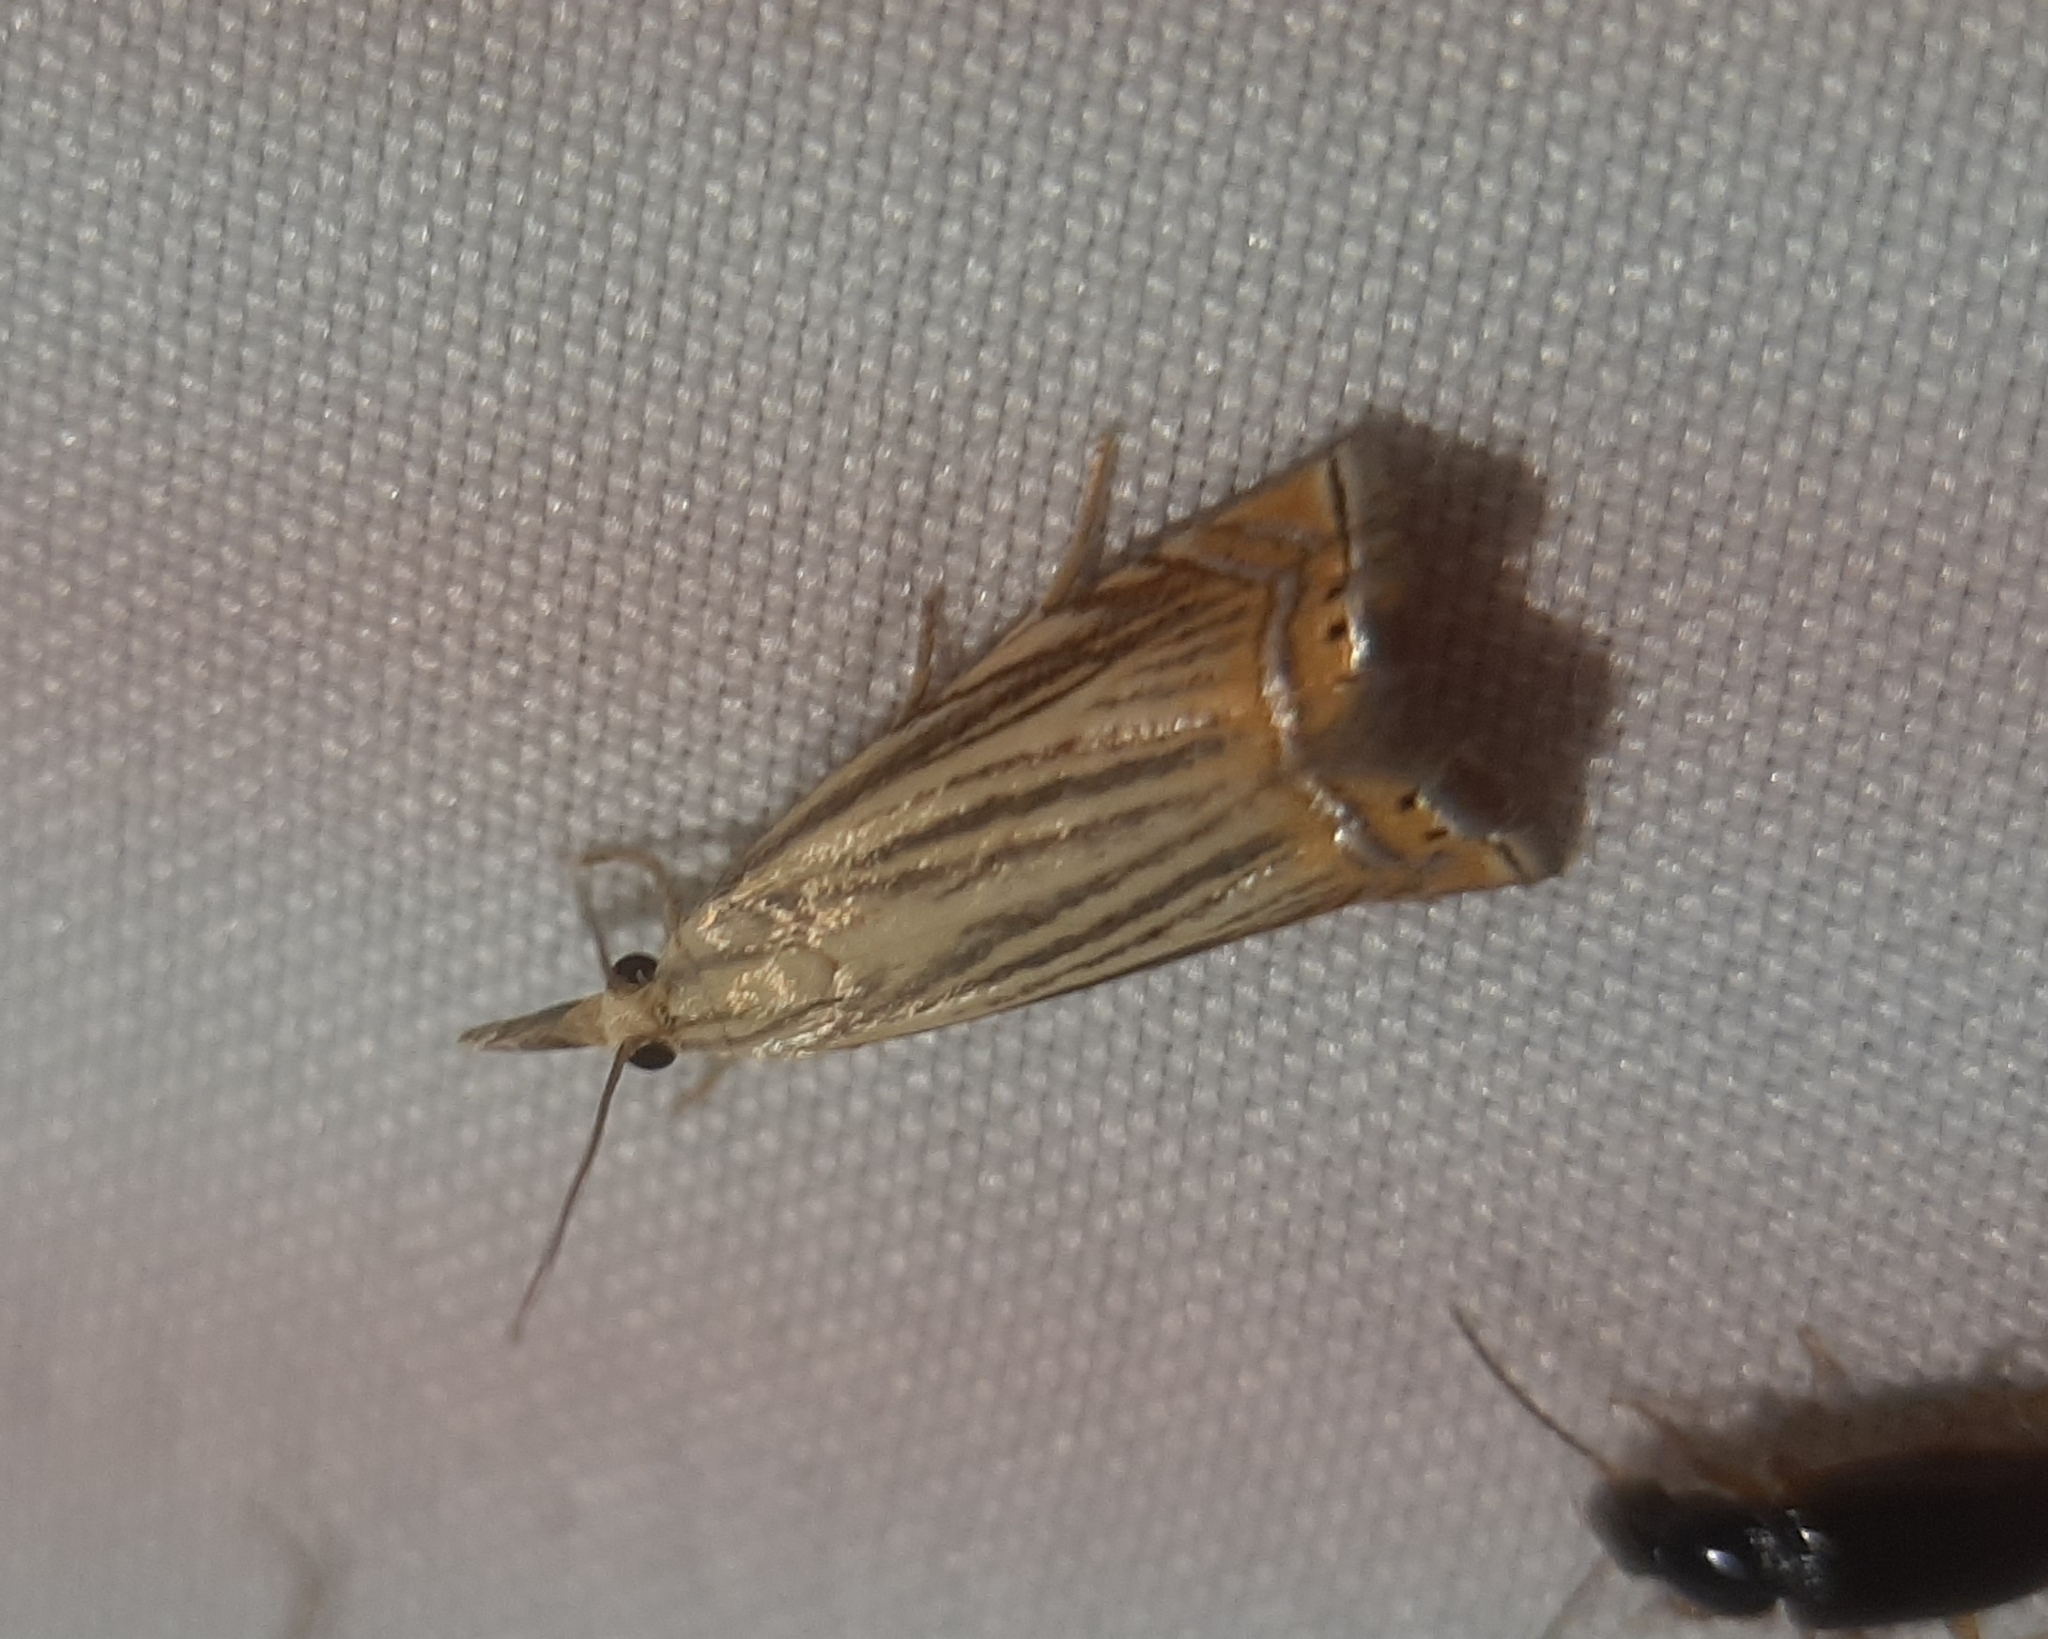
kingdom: Animalia
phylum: Arthropoda
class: Insecta
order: Lepidoptera
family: Crambidae
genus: Chrysoteuchia
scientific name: Chrysoteuchia topiarius
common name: Topiary grass-veneer
